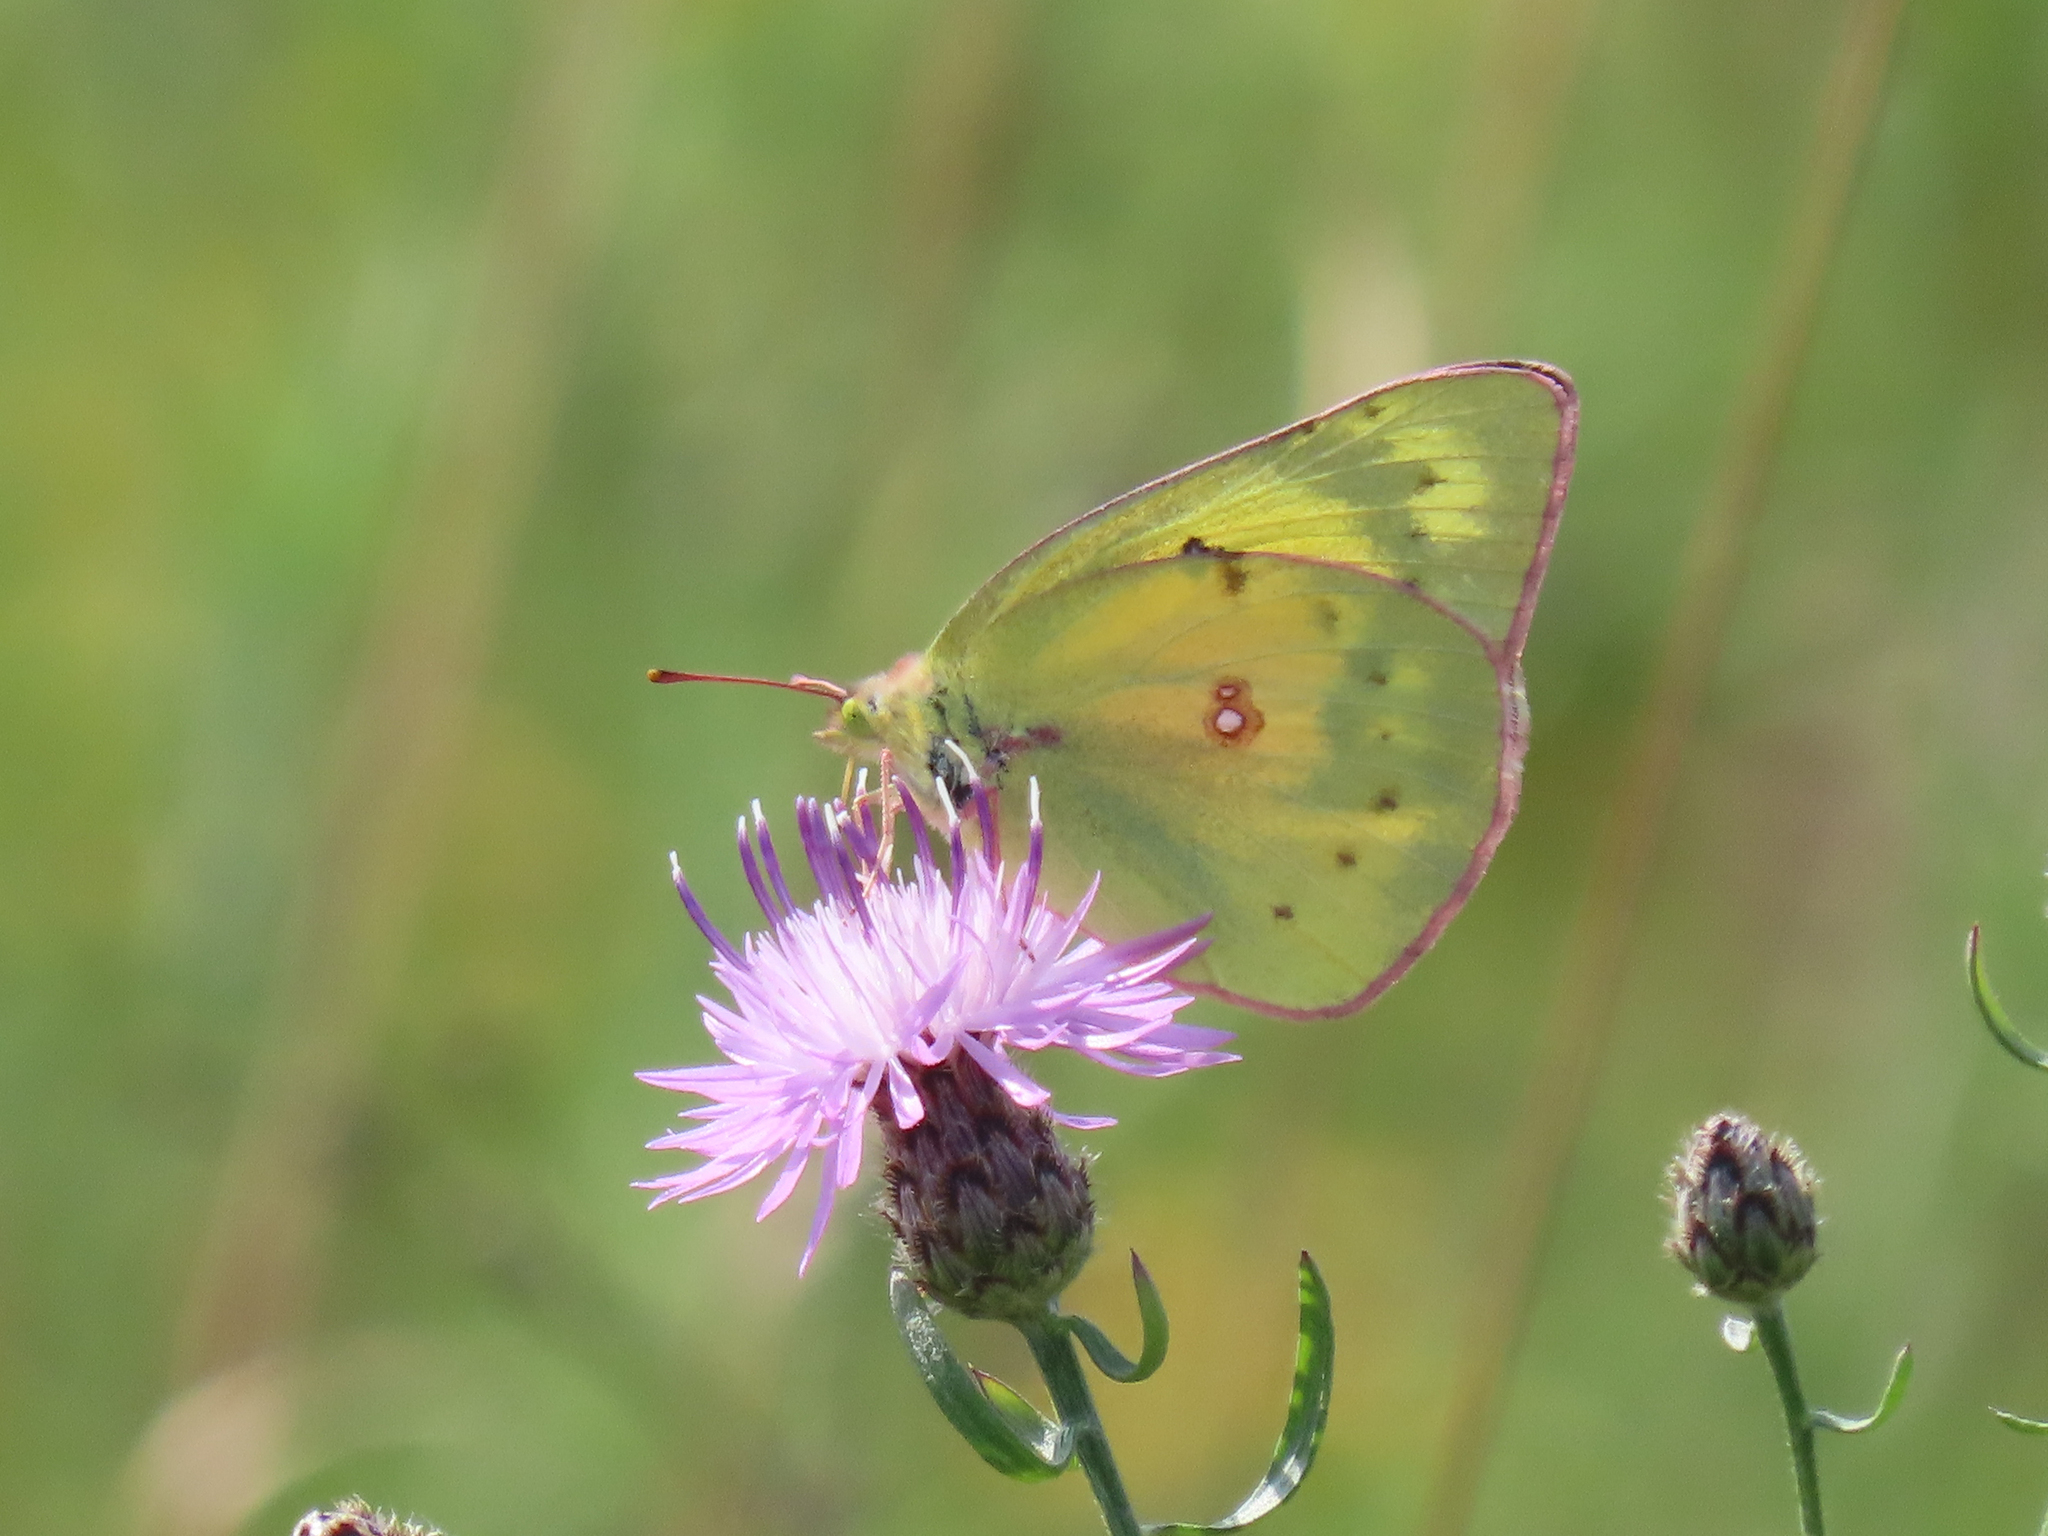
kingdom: Animalia
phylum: Arthropoda
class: Insecta
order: Lepidoptera
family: Pieridae
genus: Colias
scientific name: Colias eurytheme
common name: Alfalfa butterfly
